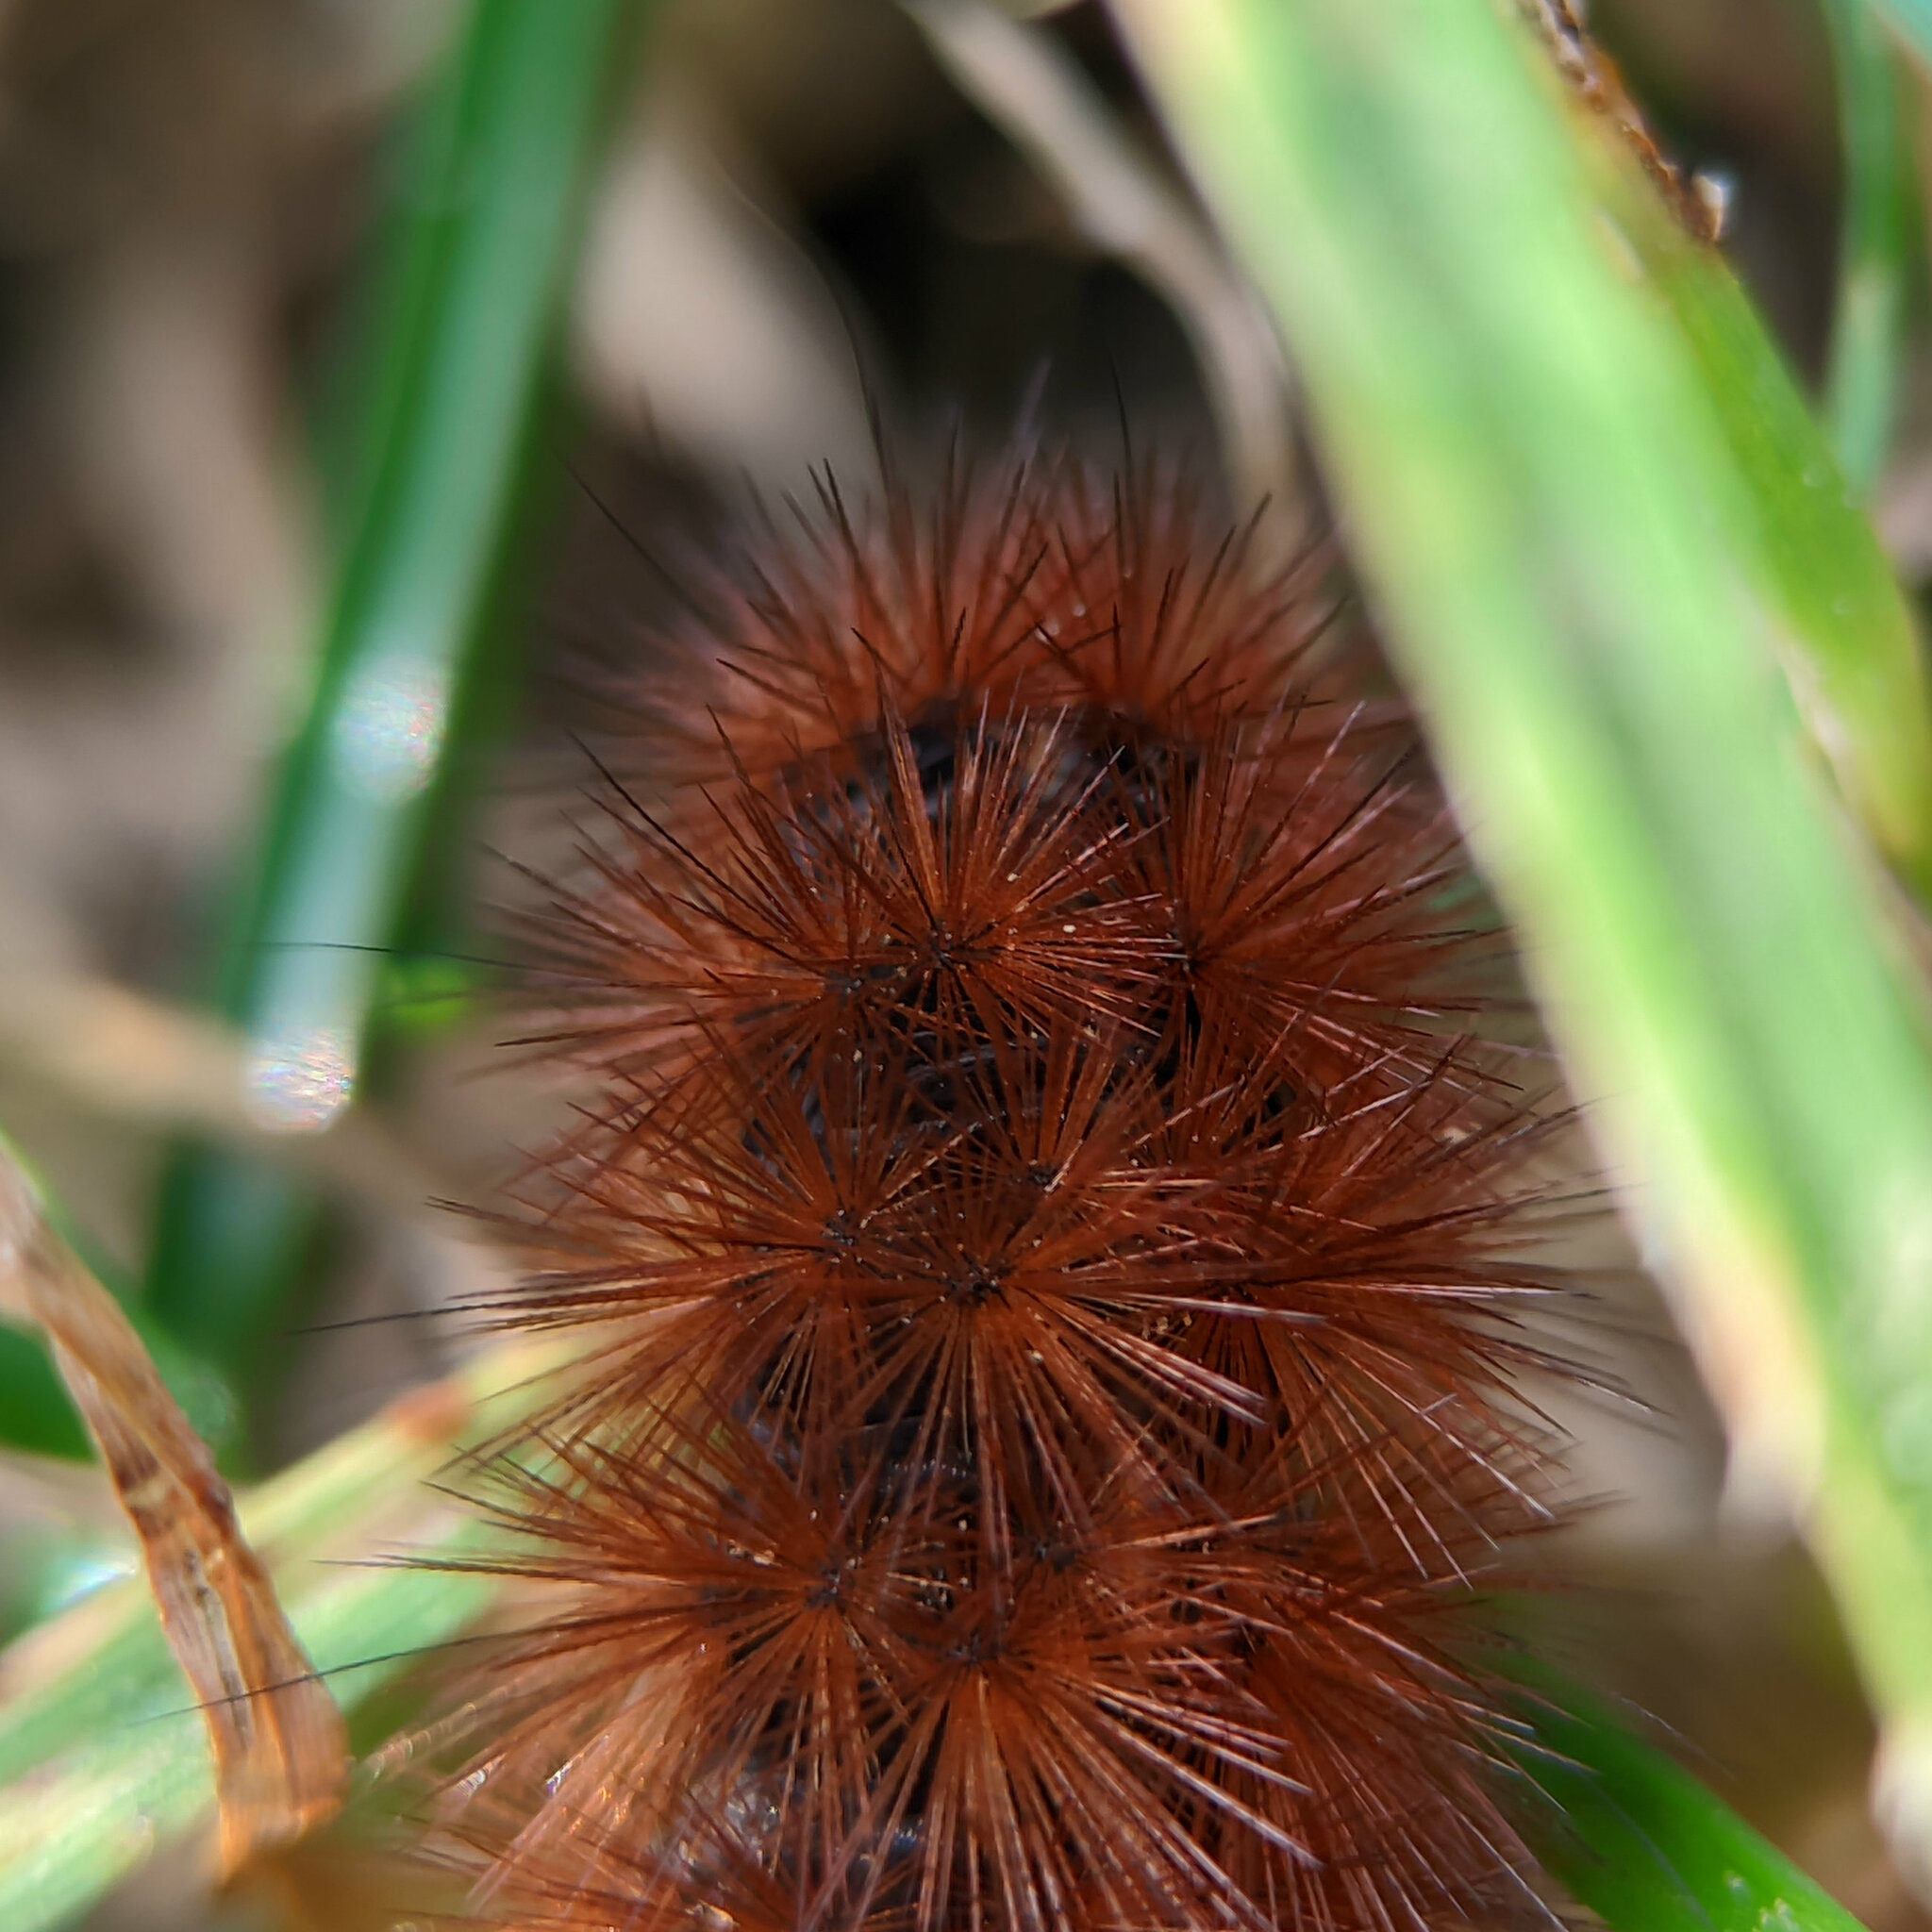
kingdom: Animalia
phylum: Arthropoda
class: Insecta
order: Lepidoptera
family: Erebidae
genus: Phragmatobia
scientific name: Phragmatobia fuliginosa
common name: Ruby tiger
